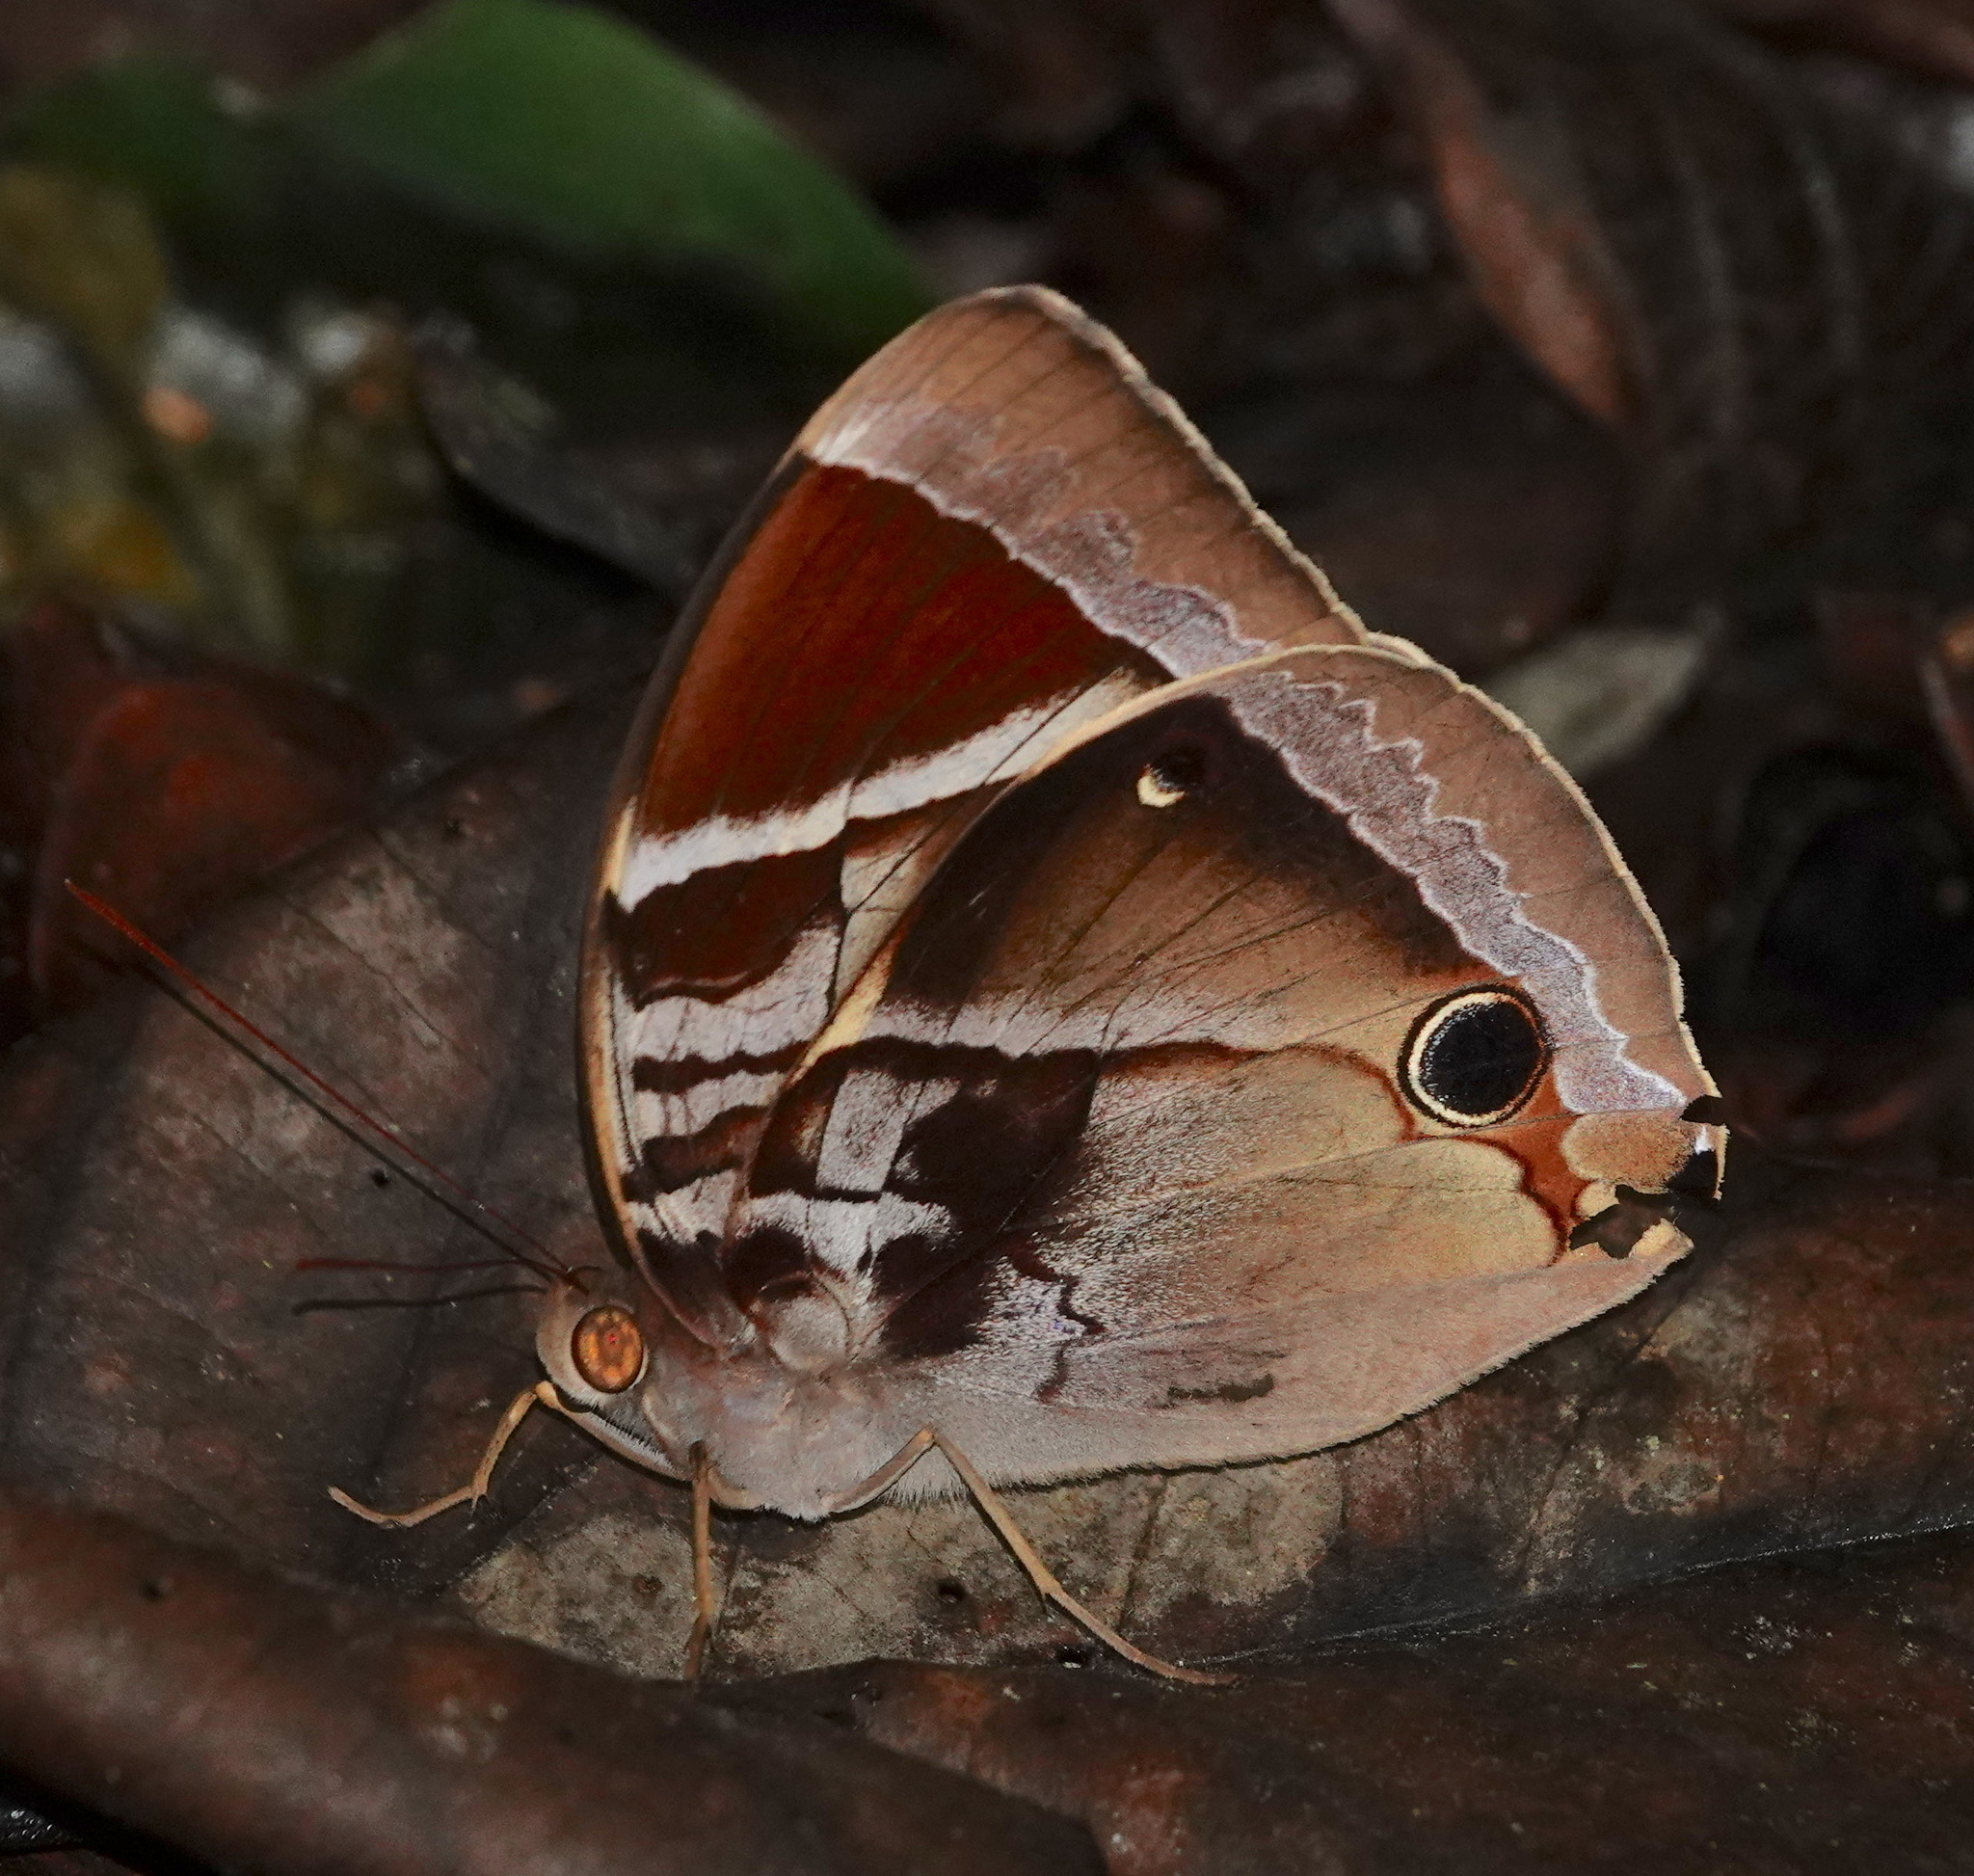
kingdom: Animalia
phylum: Arthropoda
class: Insecta
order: Lepidoptera
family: Nymphalidae
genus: Thaumantis
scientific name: Thaumantis odana
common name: Malayan jungle glory
